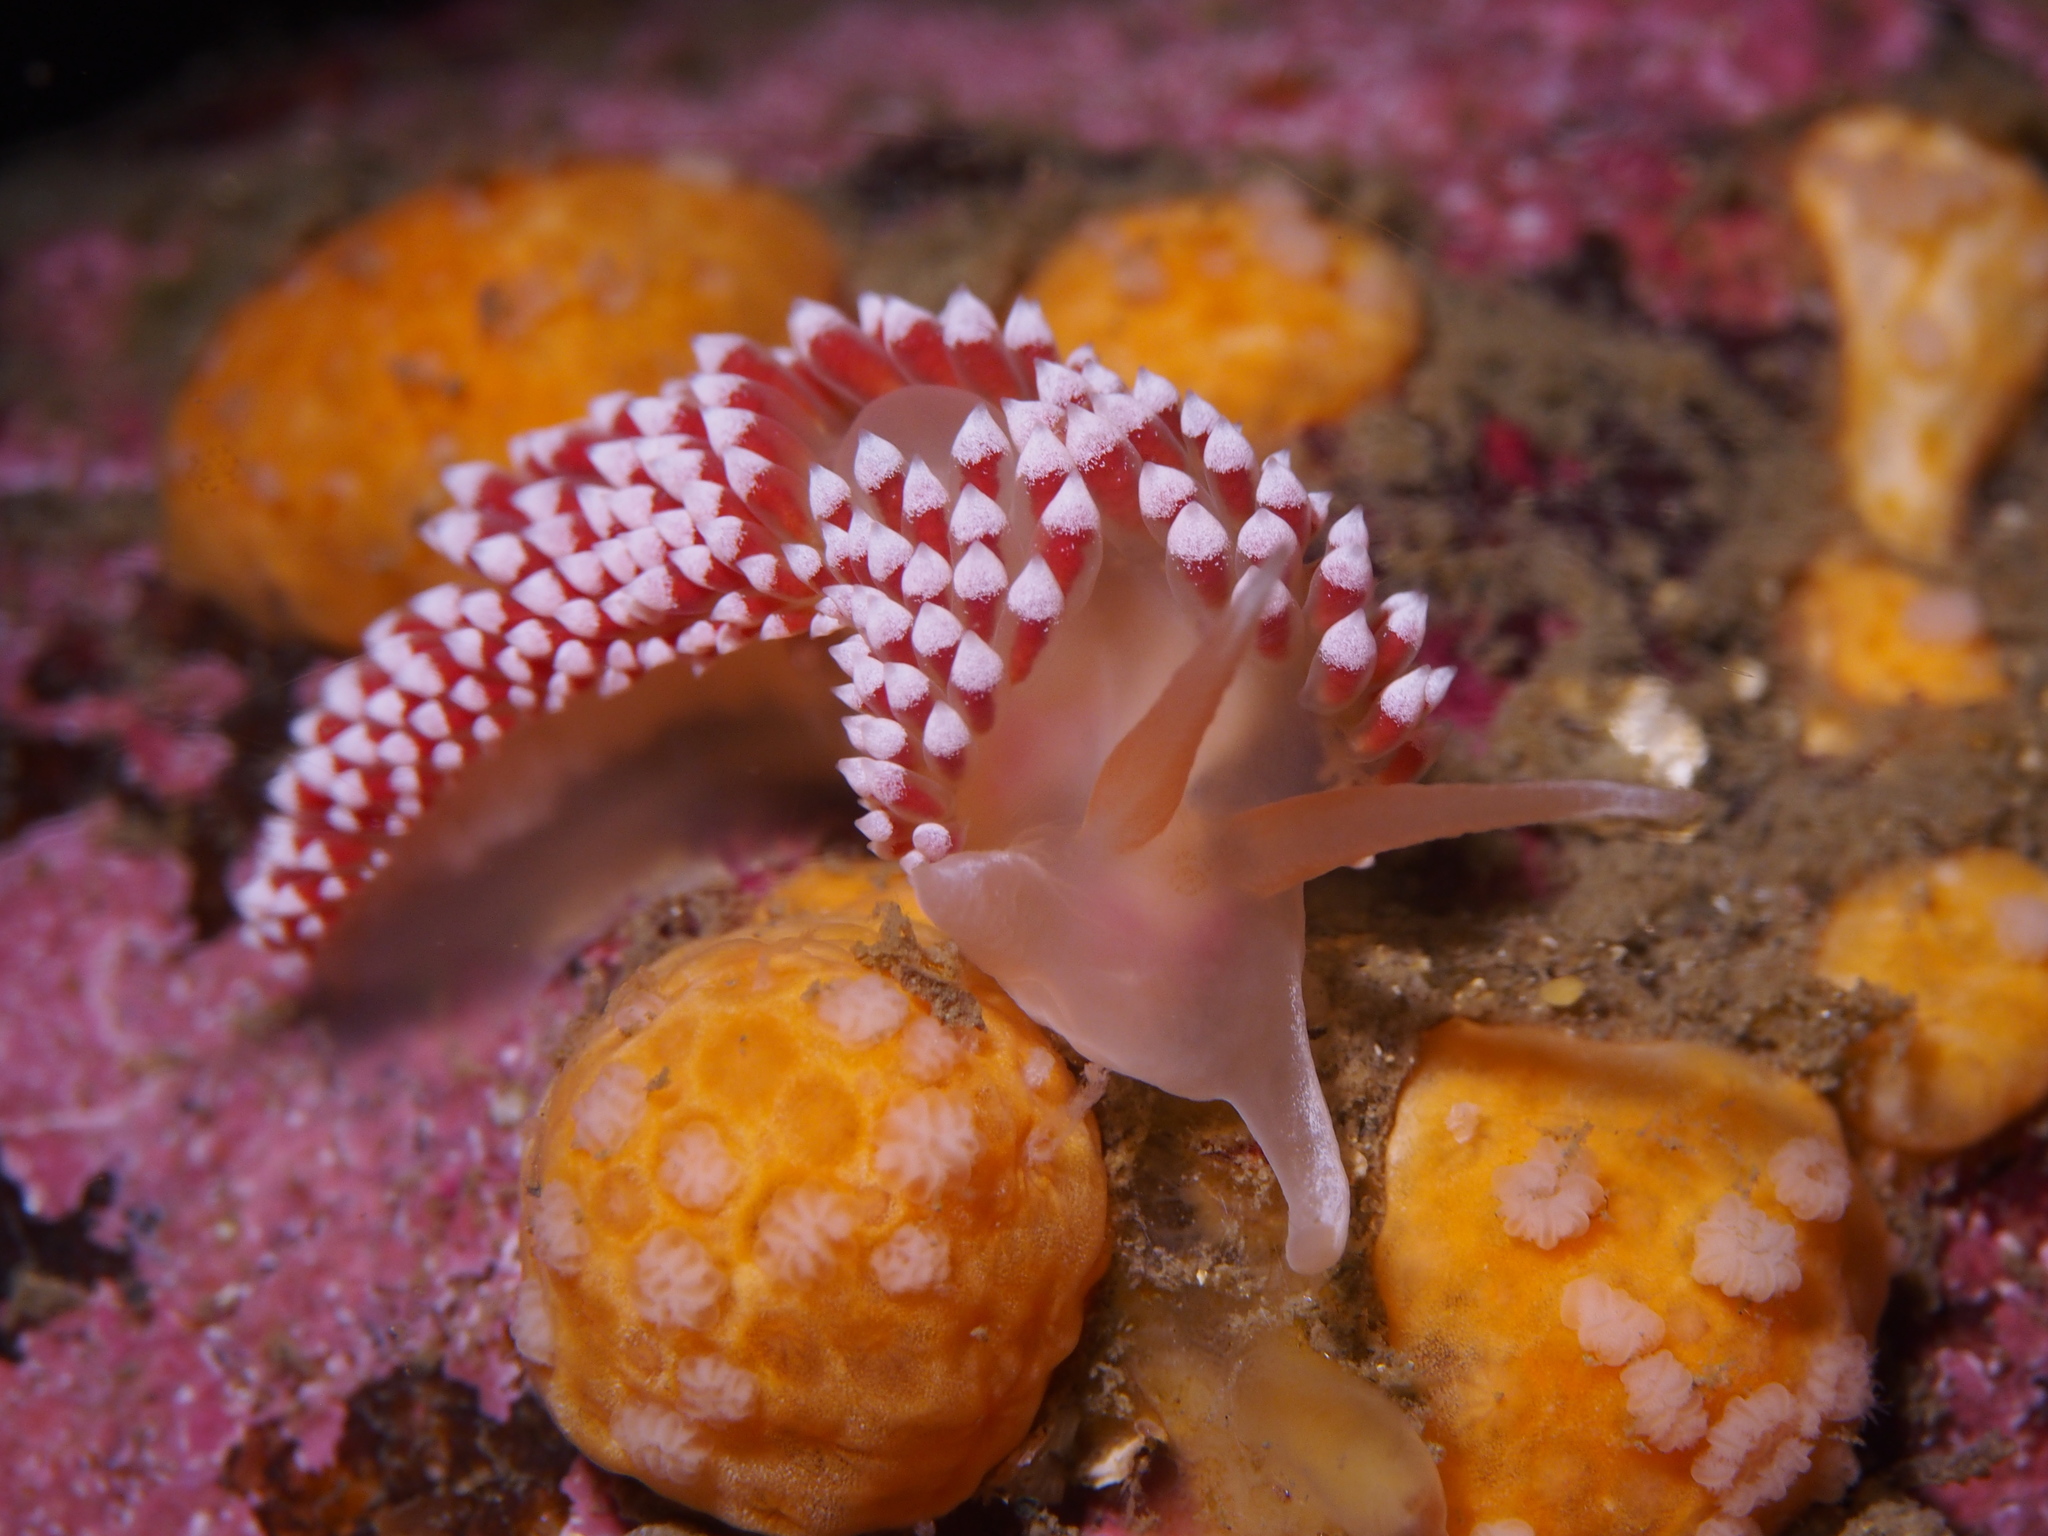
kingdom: Animalia
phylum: Mollusca
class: Gastropoda
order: Nudibranchia
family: Coryphellidae
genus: Coryphella
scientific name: Coryphella verrucosa
